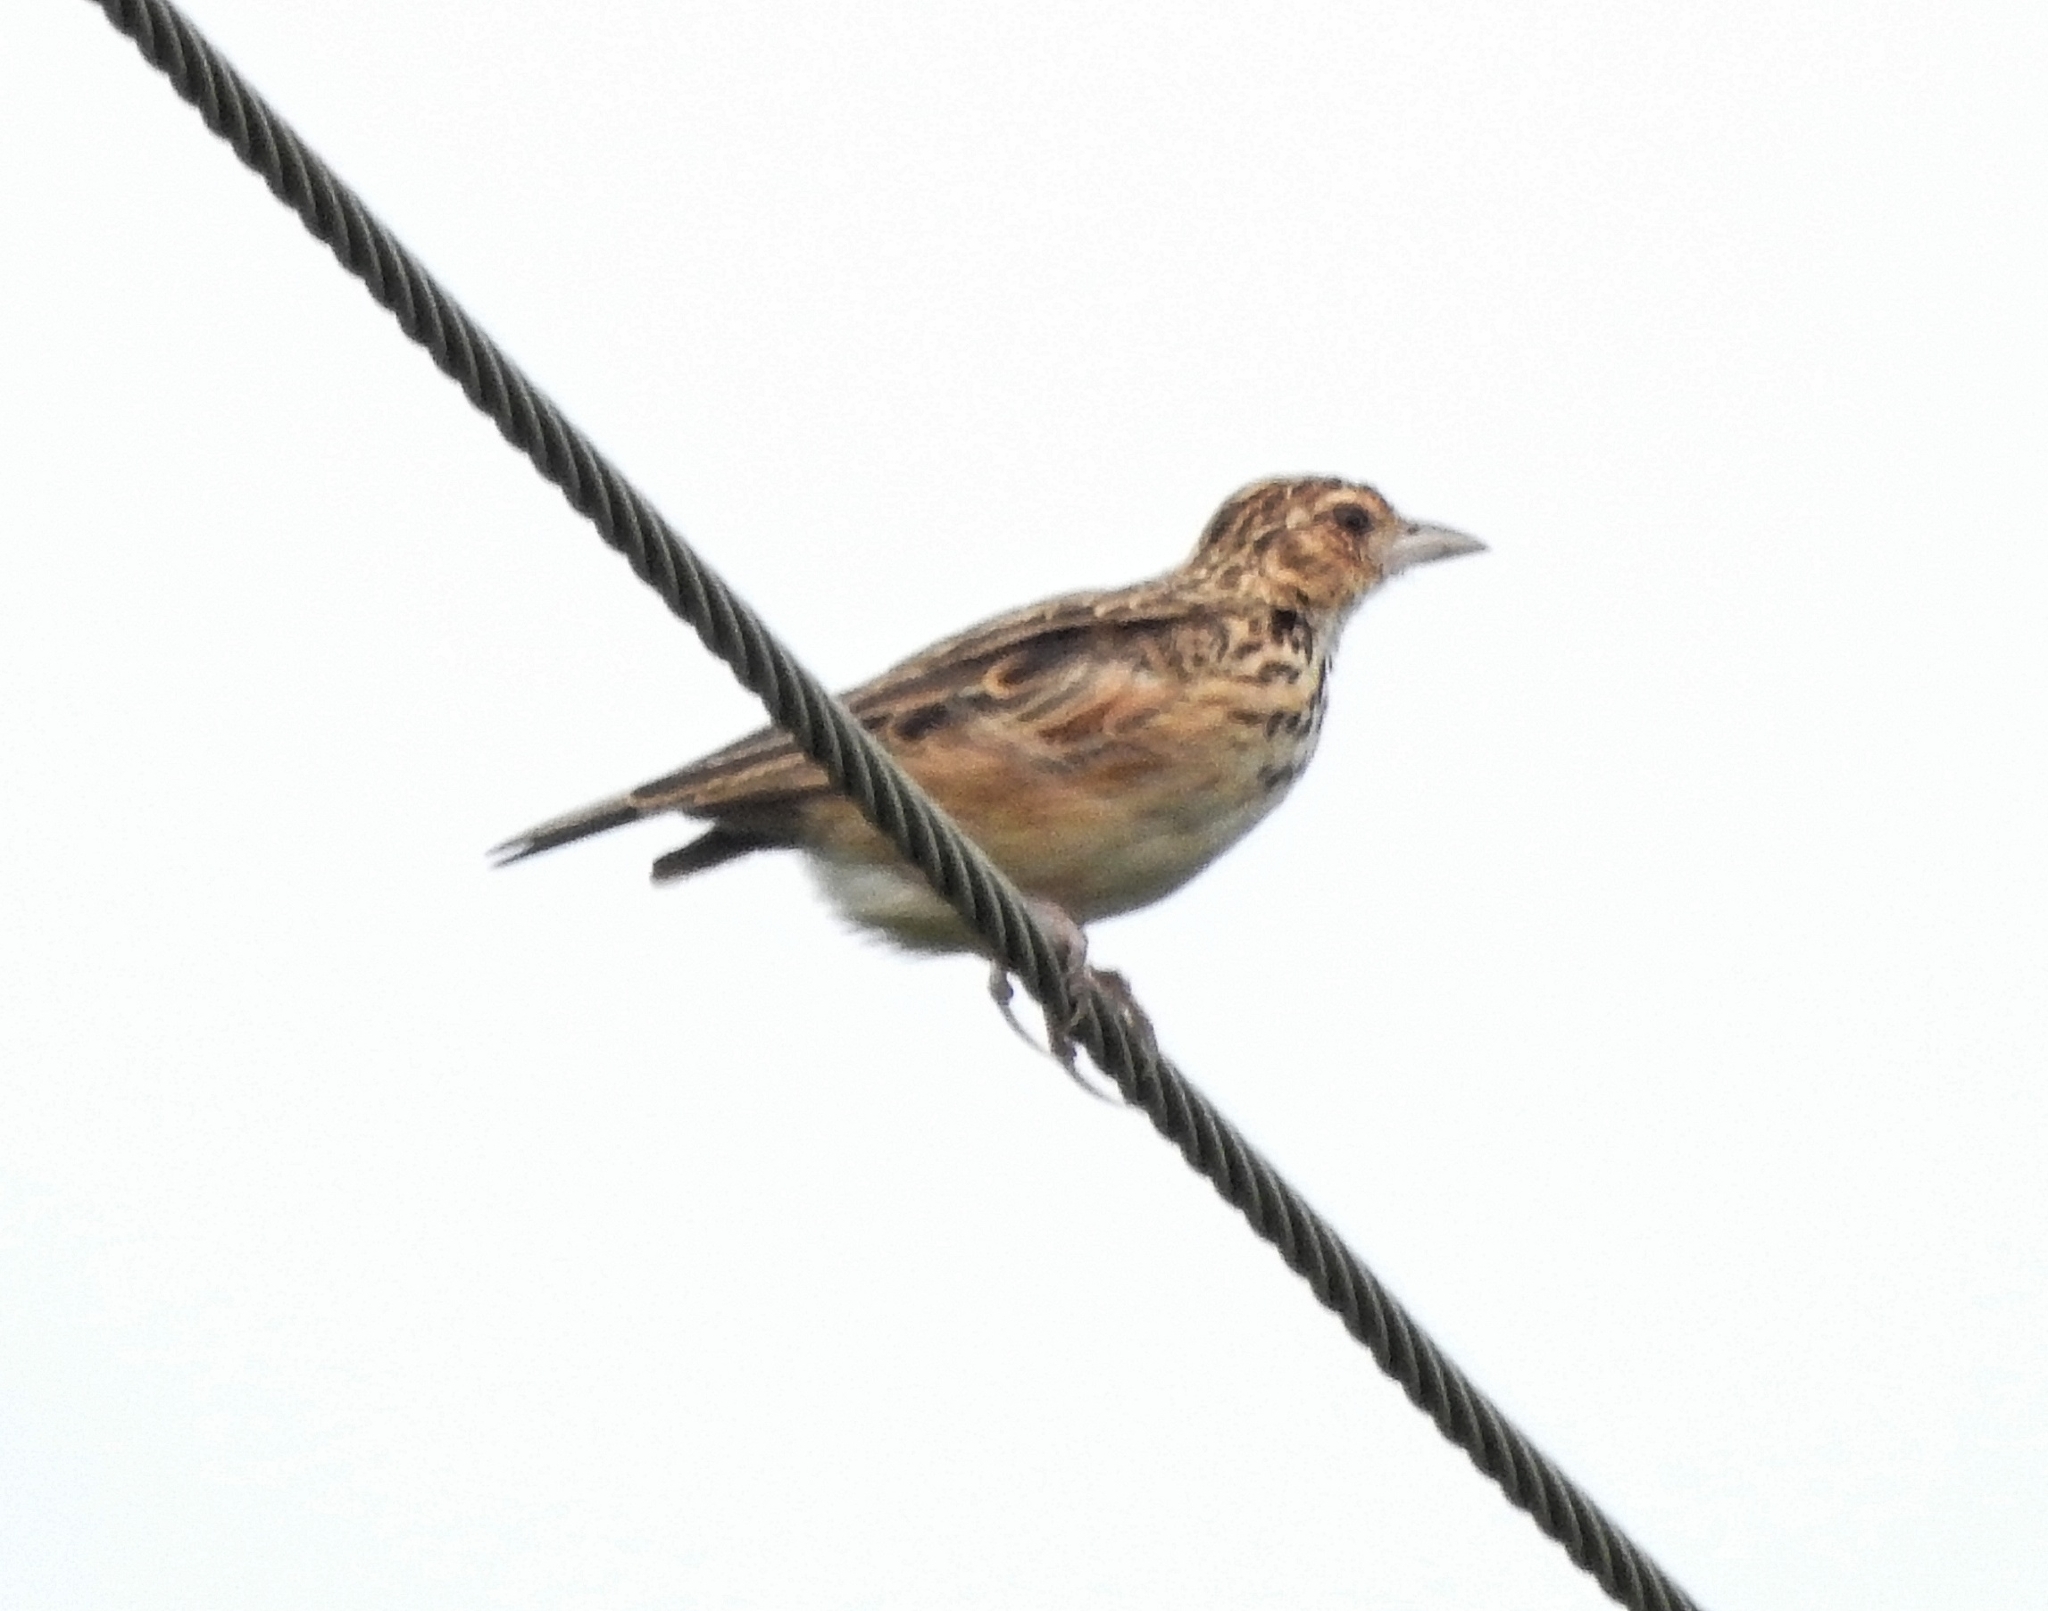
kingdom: Animalia
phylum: Chordata
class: Aves
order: Passeriformes
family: Alaudidae
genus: Mirafra
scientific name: Mirafra affinis
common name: Jerdon's bushlark
